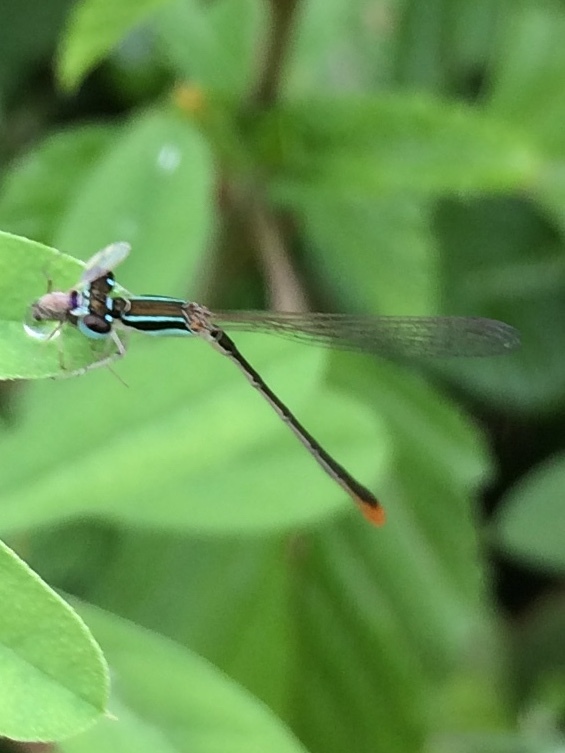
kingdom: Animalia
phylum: Arthropoda
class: Insecta
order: Odonata
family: Coenagrionidae
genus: Agriocnemis
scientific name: Agriocnemis pygmaea
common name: Pygmy wisp
